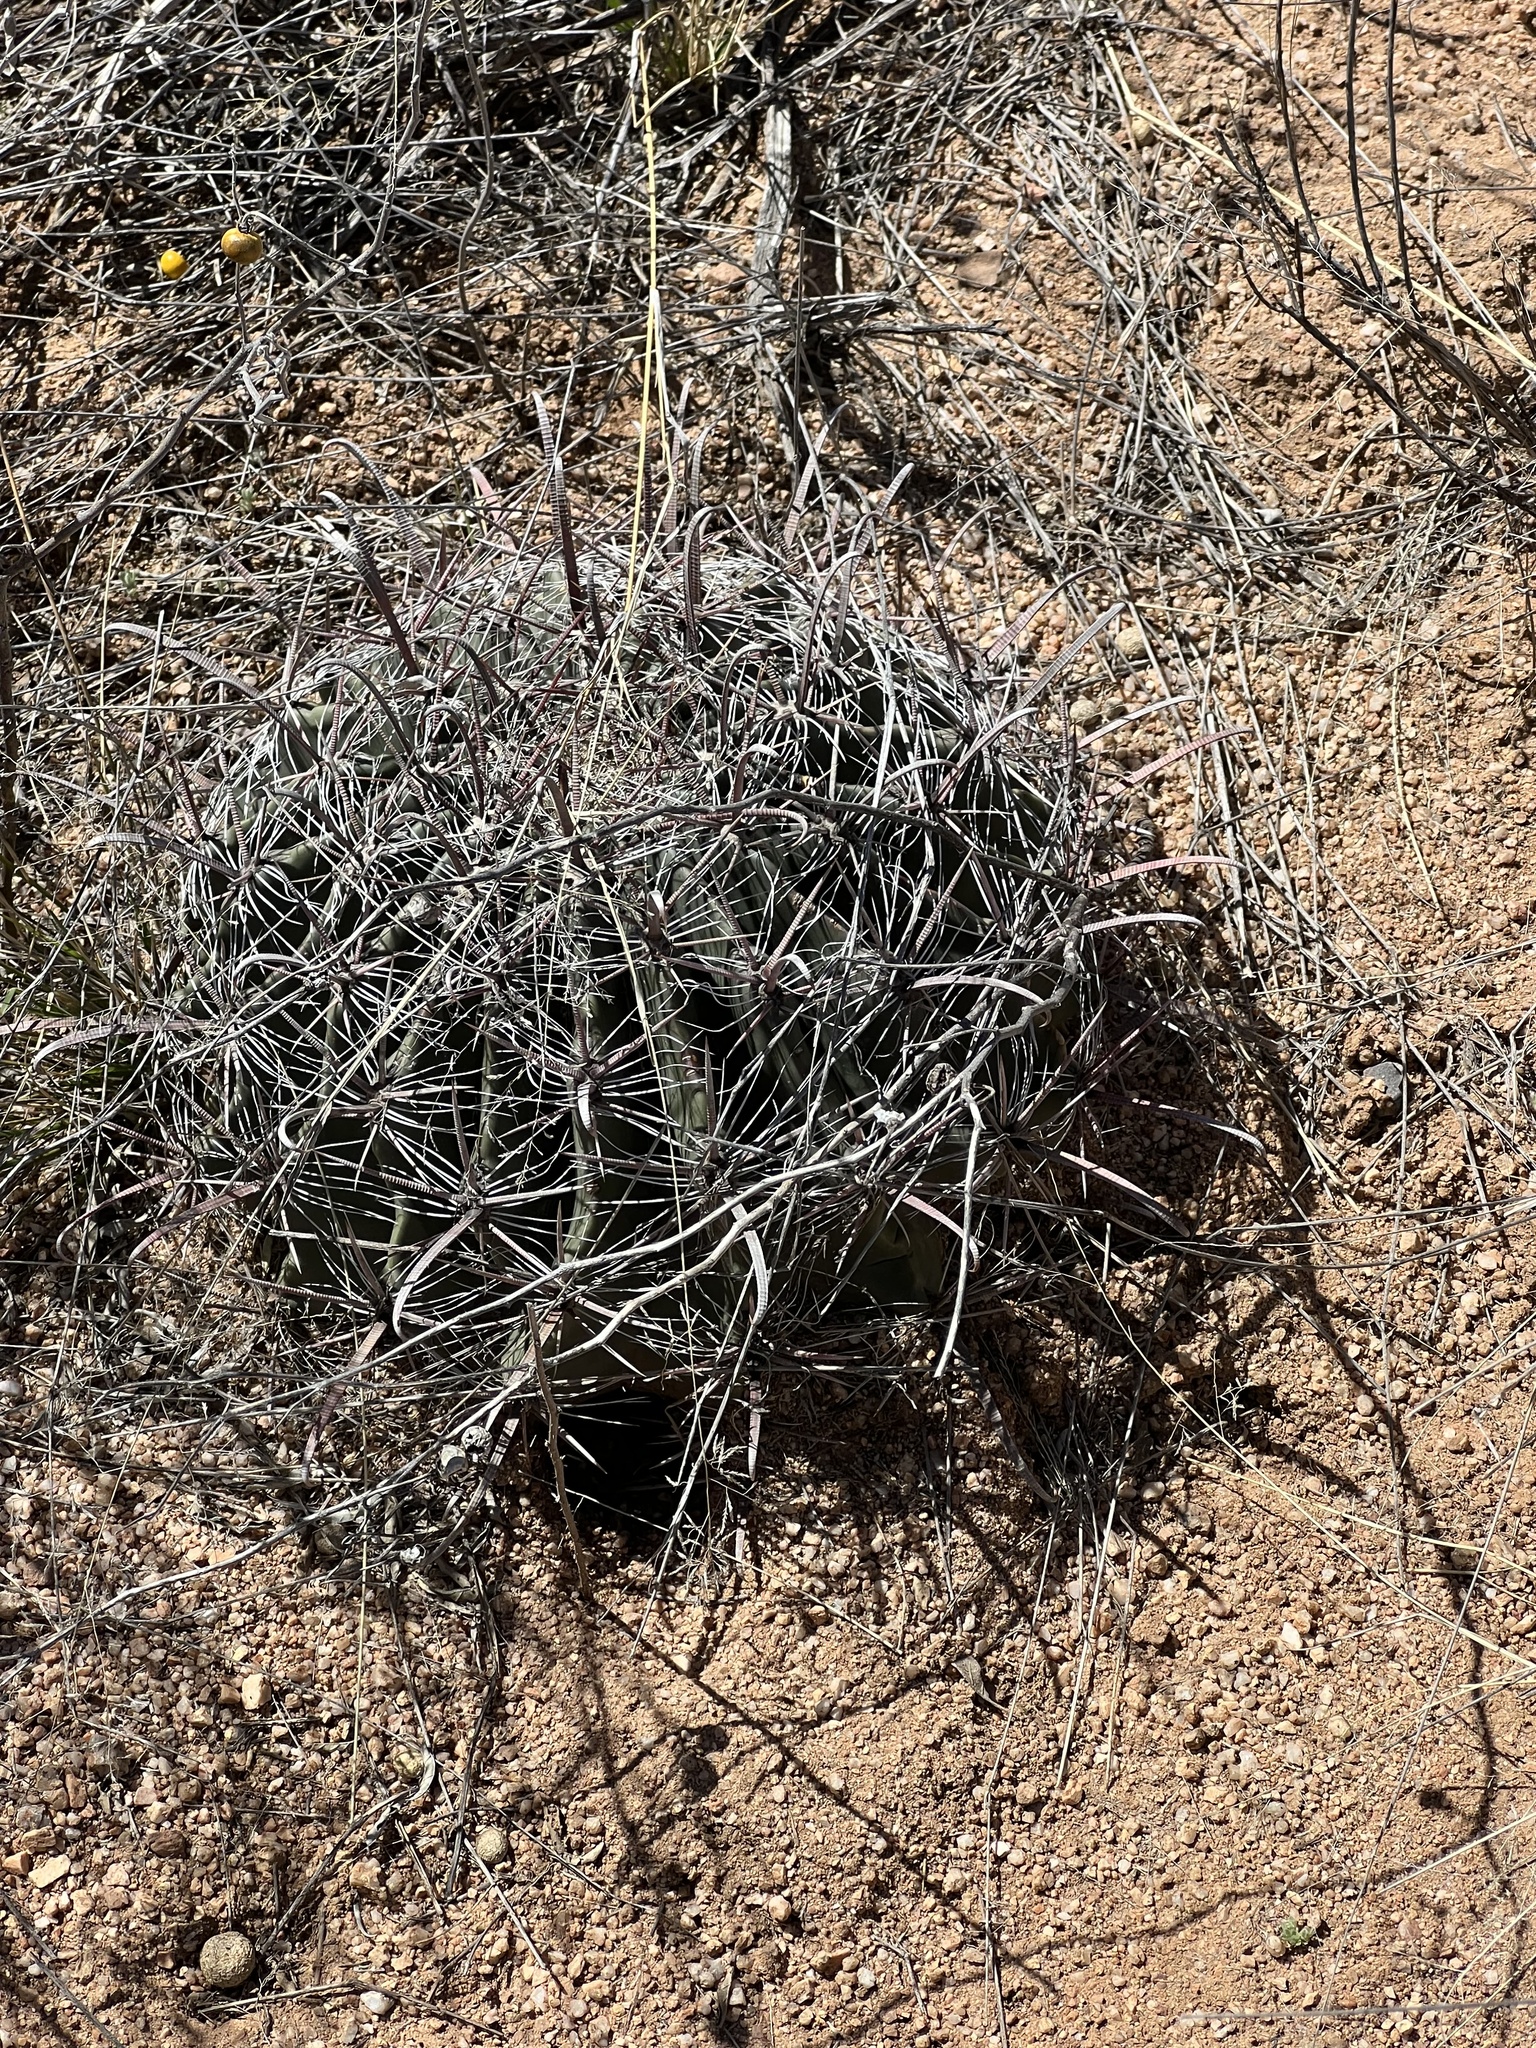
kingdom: Plantae
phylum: Tracheophyta
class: Magnoliopsida
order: Caryophyllales
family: Cactaceae
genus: Ferocactus
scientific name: Ferocactus wislizeni
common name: Candy barrel cactus
